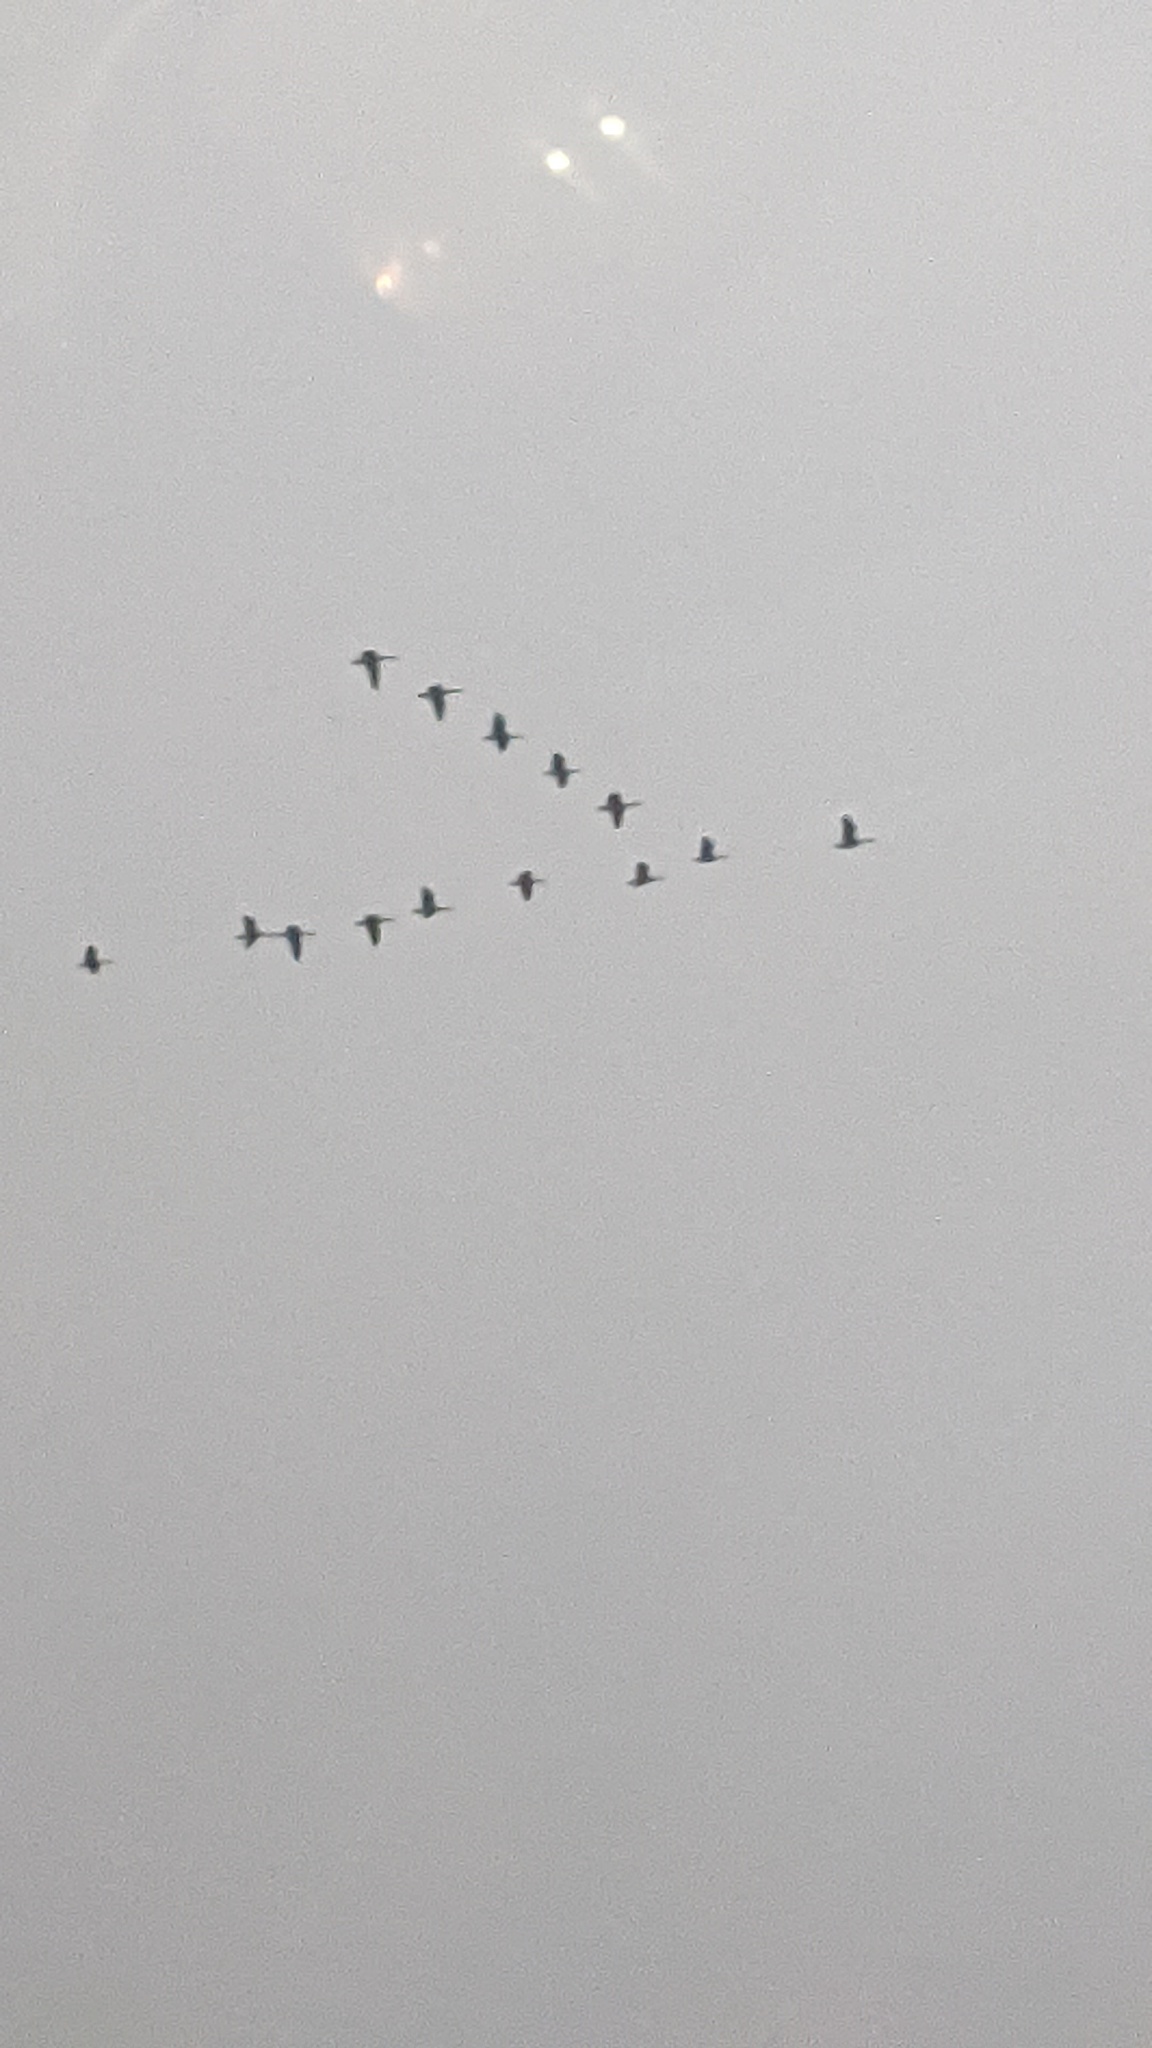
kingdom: Animalia
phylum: Chordata
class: Aves
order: Anseriformes
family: Anatidae
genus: Branta
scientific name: Branta canadensis
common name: Canada goose
